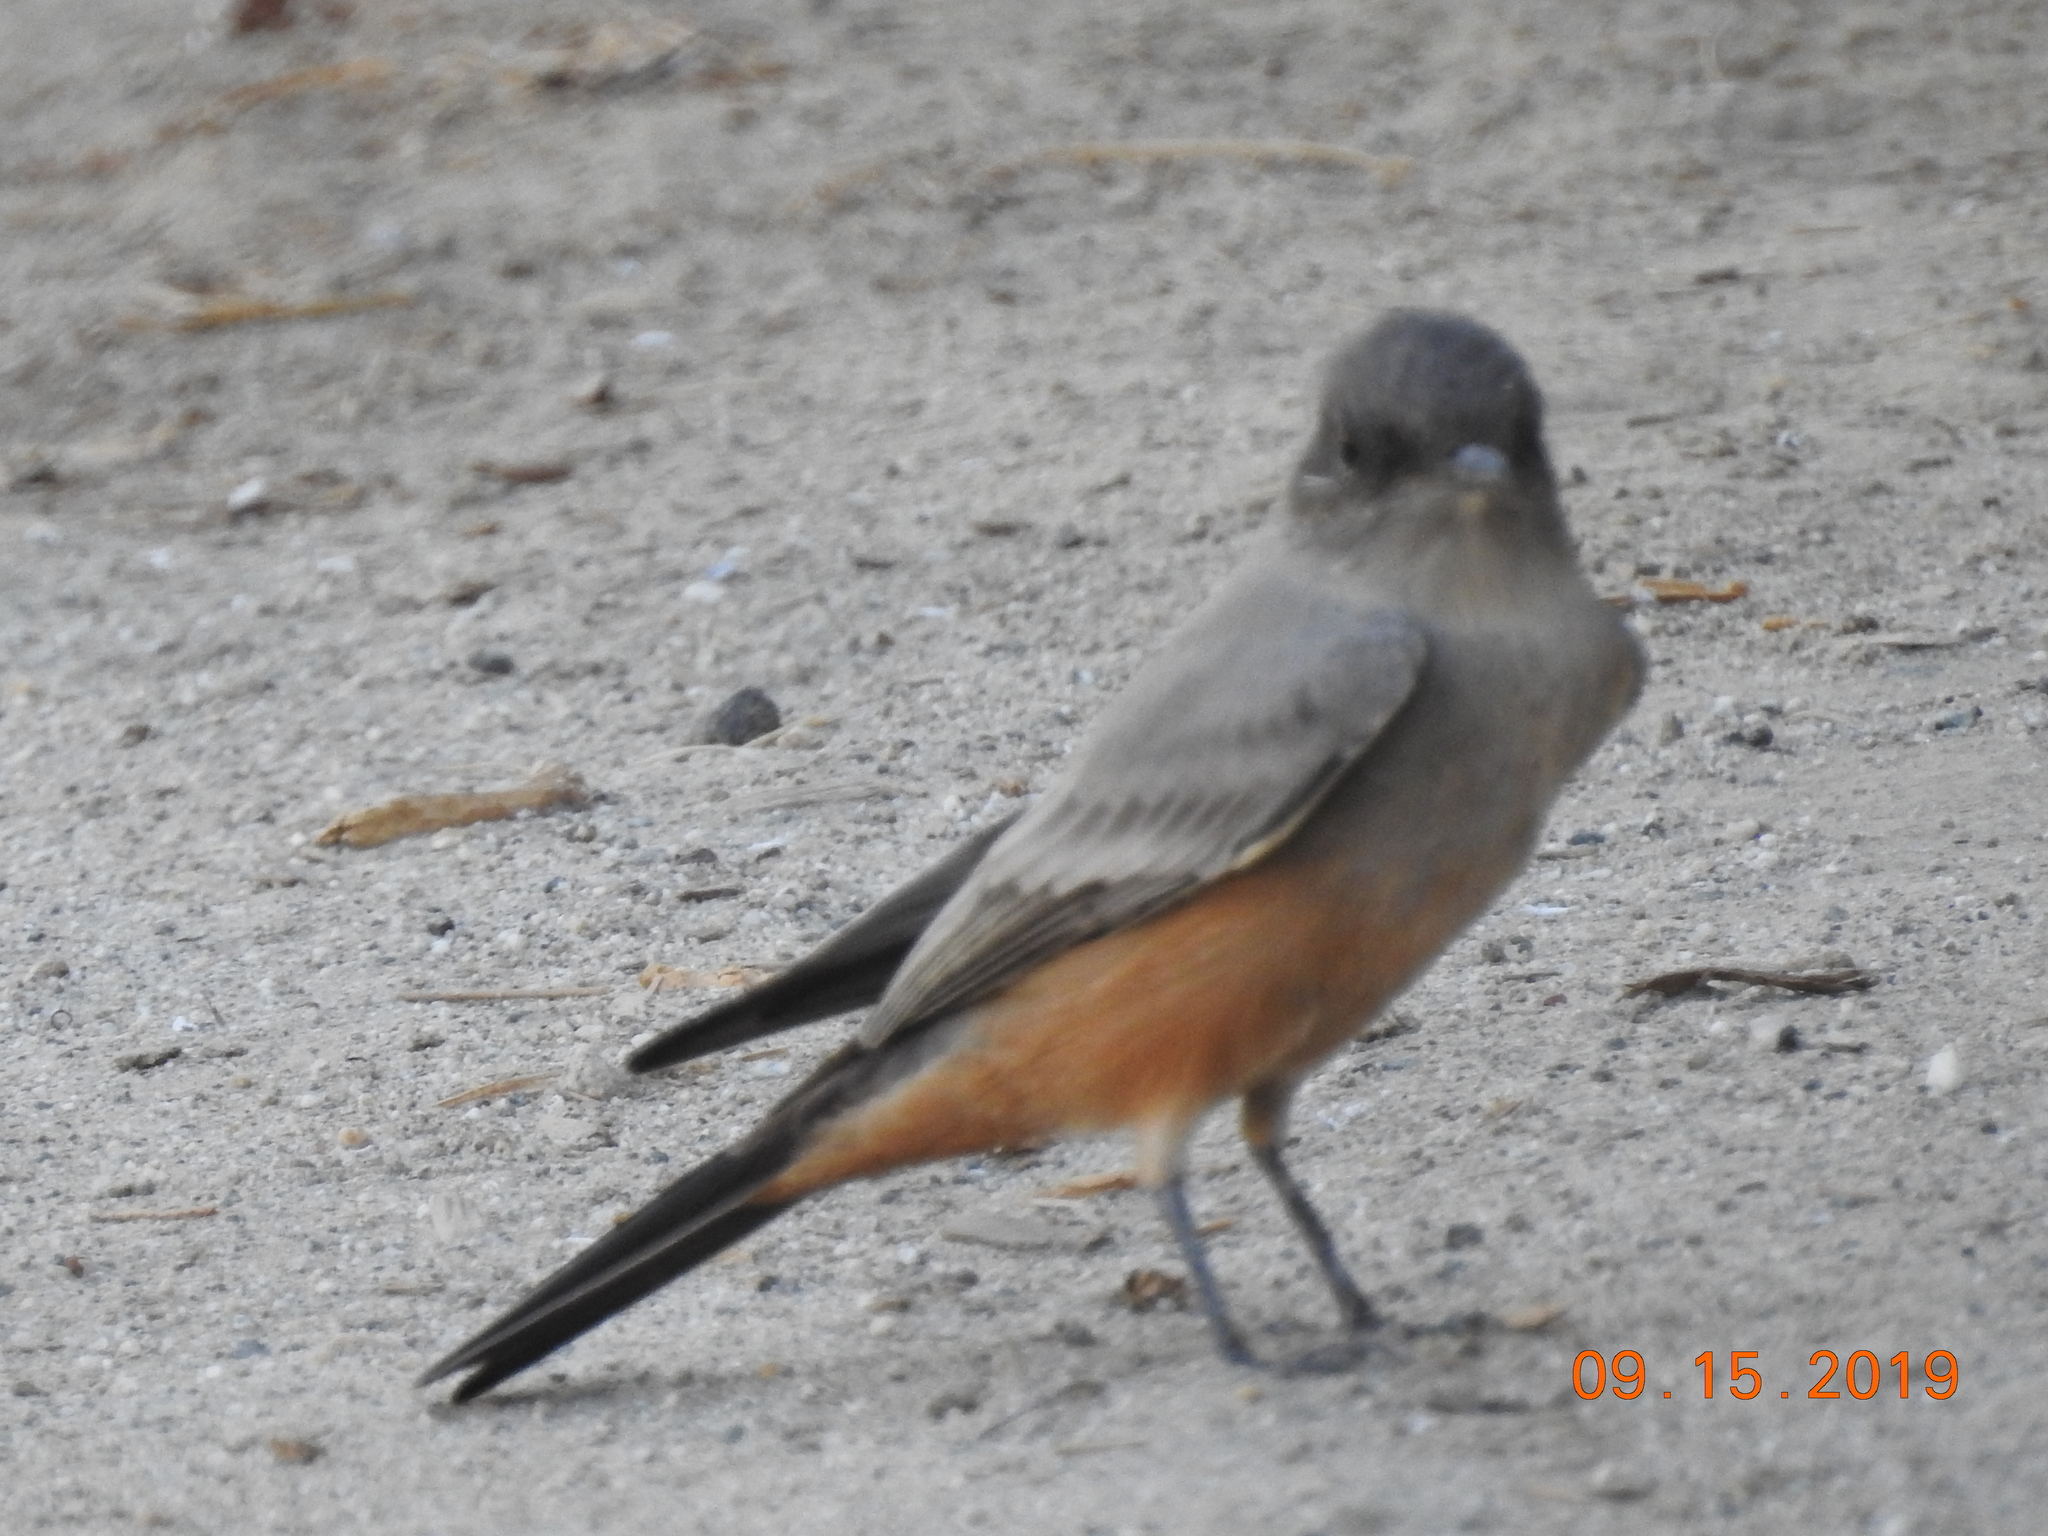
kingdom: Animalia
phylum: Chordata
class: Aves
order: Passeriformes
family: Tyrannidae
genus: Sayornis
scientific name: Sayornis saya
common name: Say's phoebe
